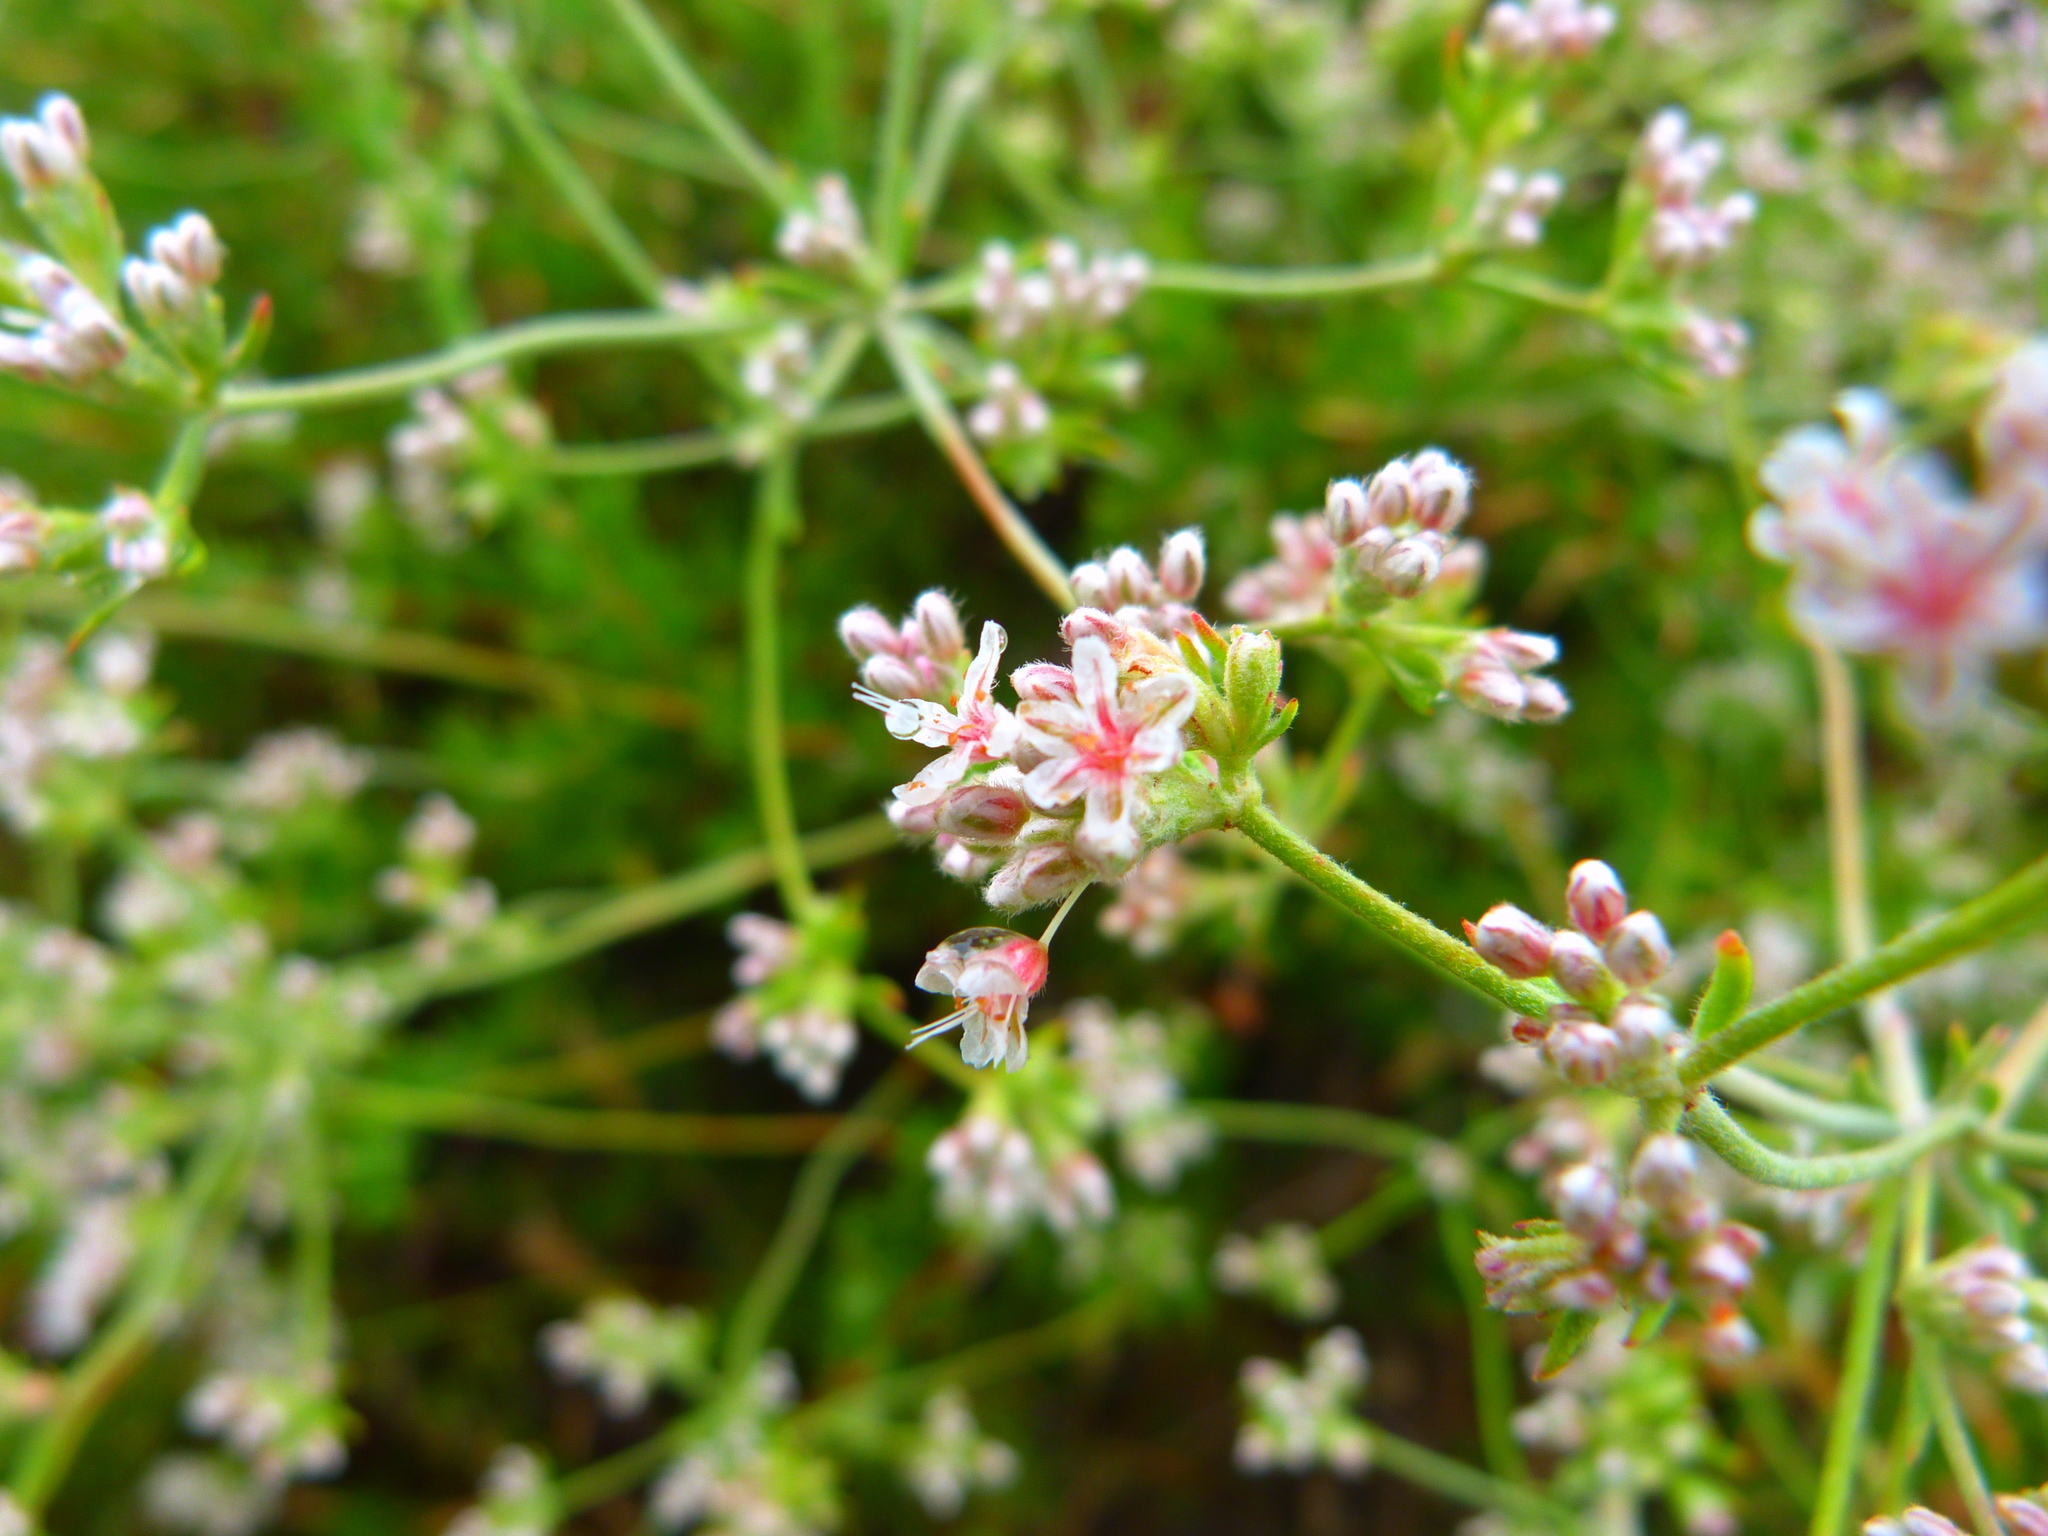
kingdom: Plantae
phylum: Tracheophyta
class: Magnoliopsida
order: Caryophyllales
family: Polygonaceae
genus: Eriogonum
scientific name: Eriogonum fasciculatum
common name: California wild buckwheat
